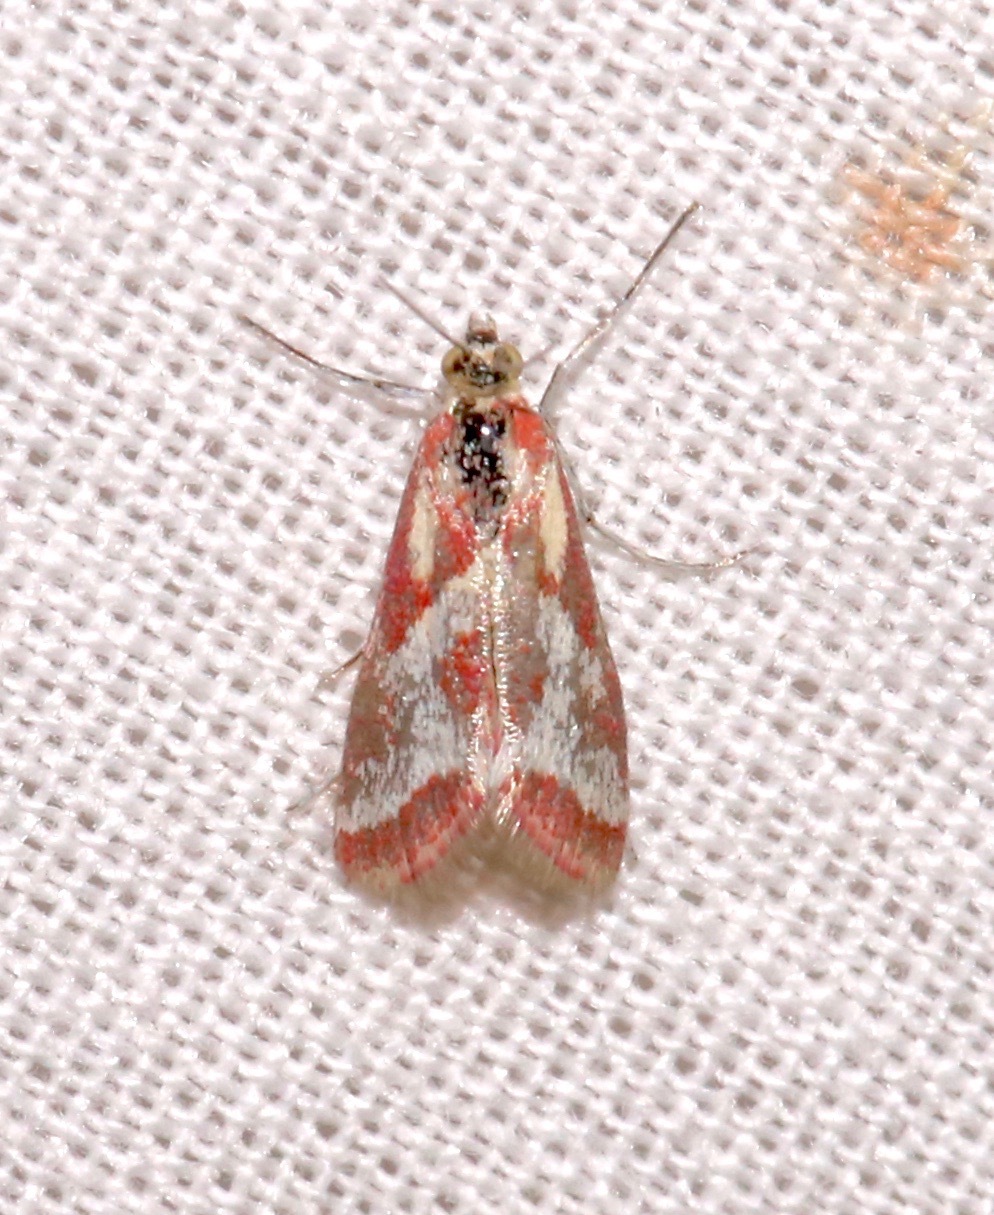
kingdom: Animalia
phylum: Arthropoda
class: Insecta
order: Lepidoptera
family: Crambidae
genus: Noctueliopsis
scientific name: Noctueliopsis aridalis
